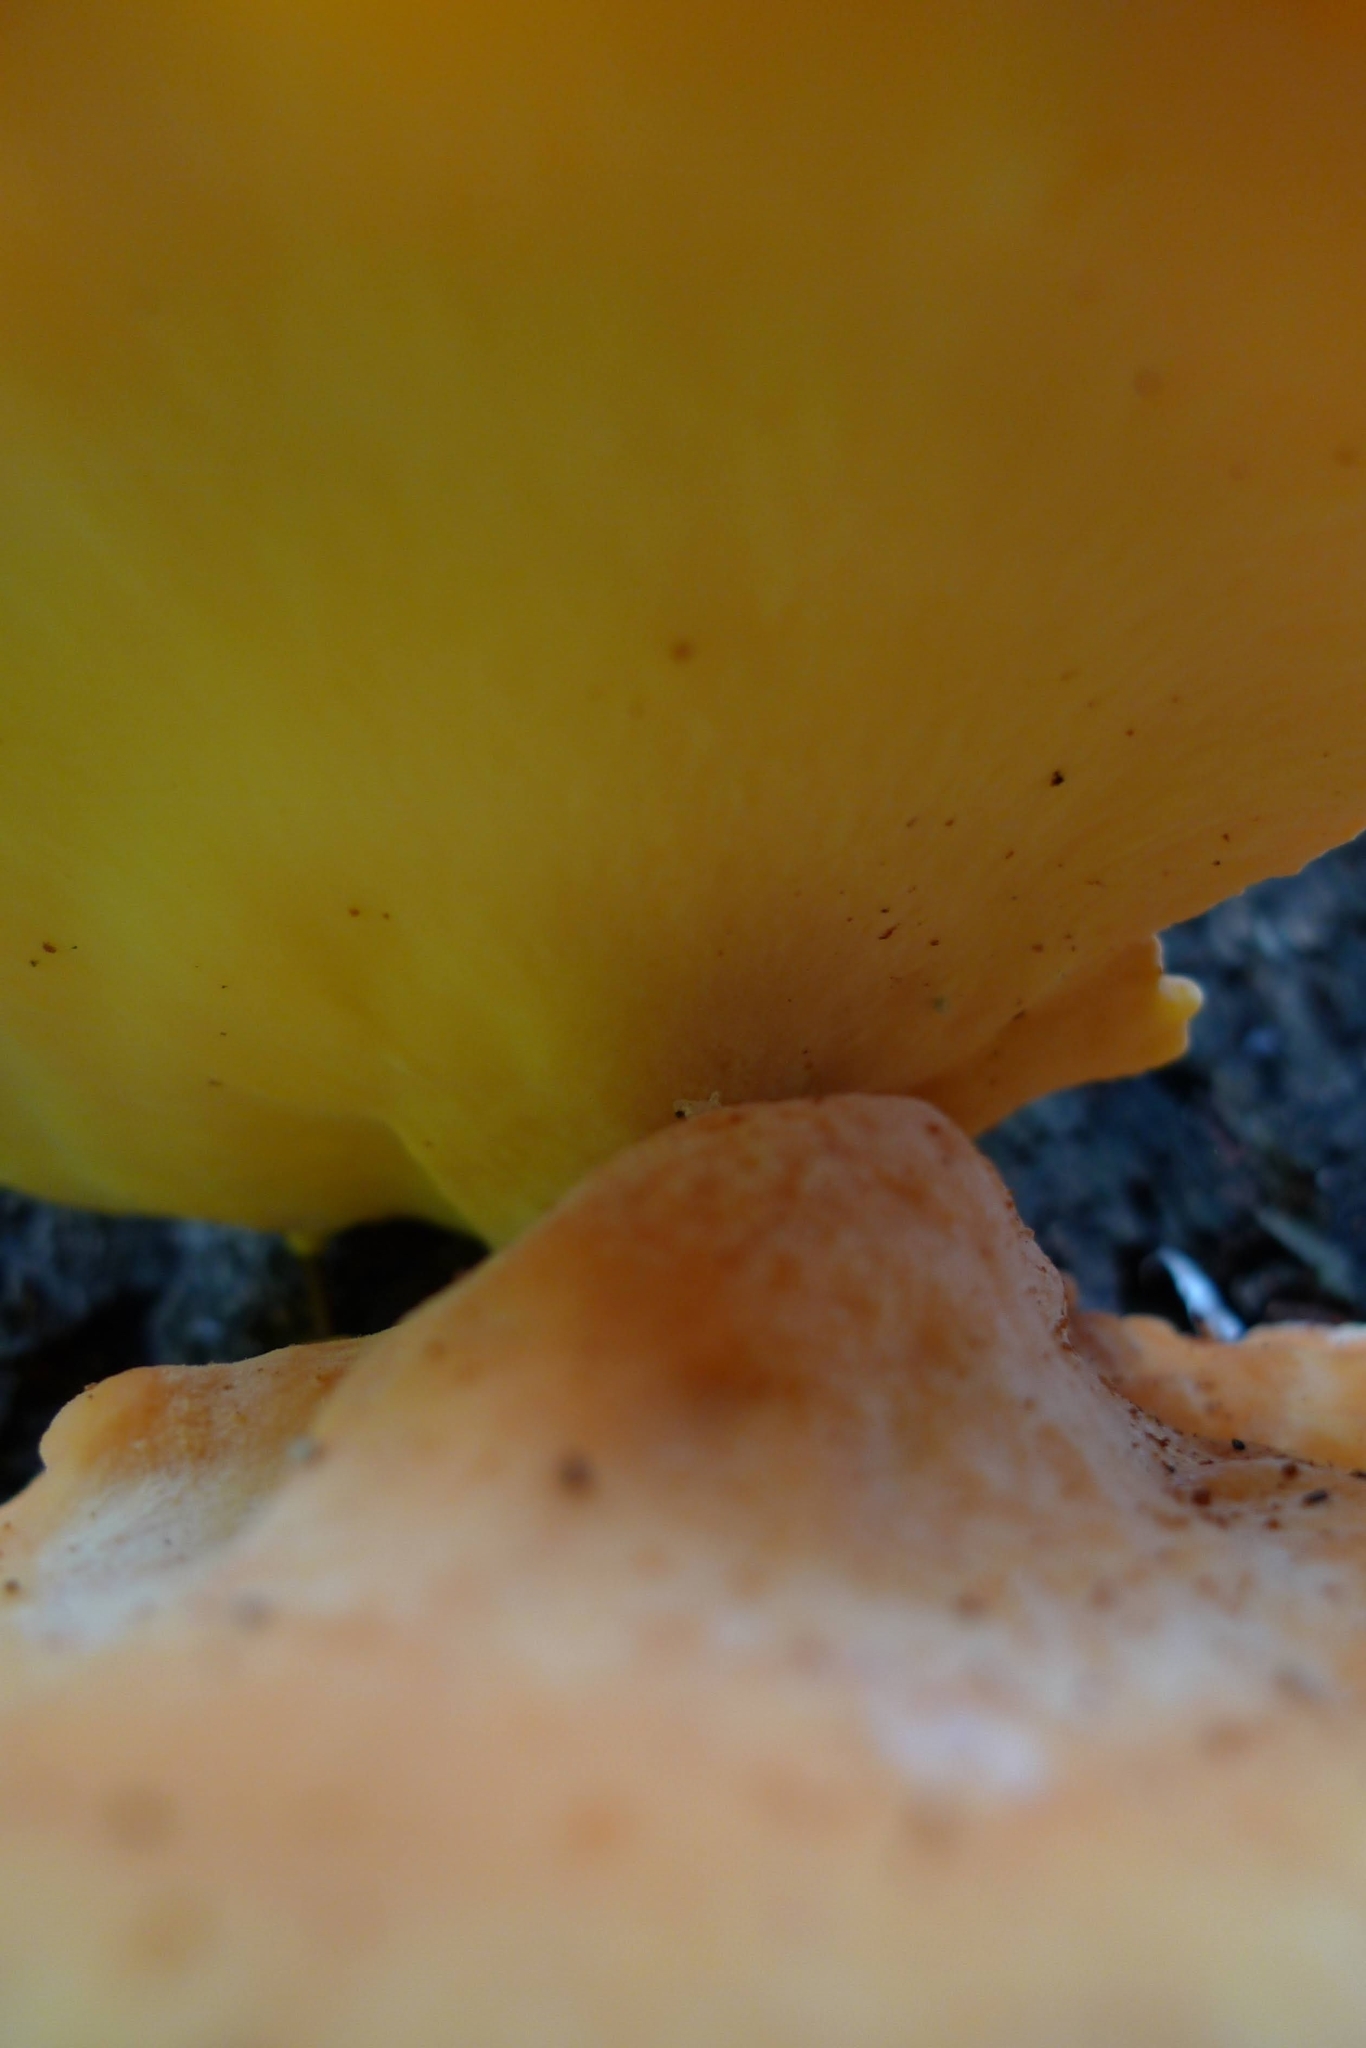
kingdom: Fungi
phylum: Basidiomycota
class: Agaricomycetes
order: Polyporales
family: Laetiporaceae
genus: Laetiporus
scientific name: Laetiporus sulphureus
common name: Chicken of the woods
